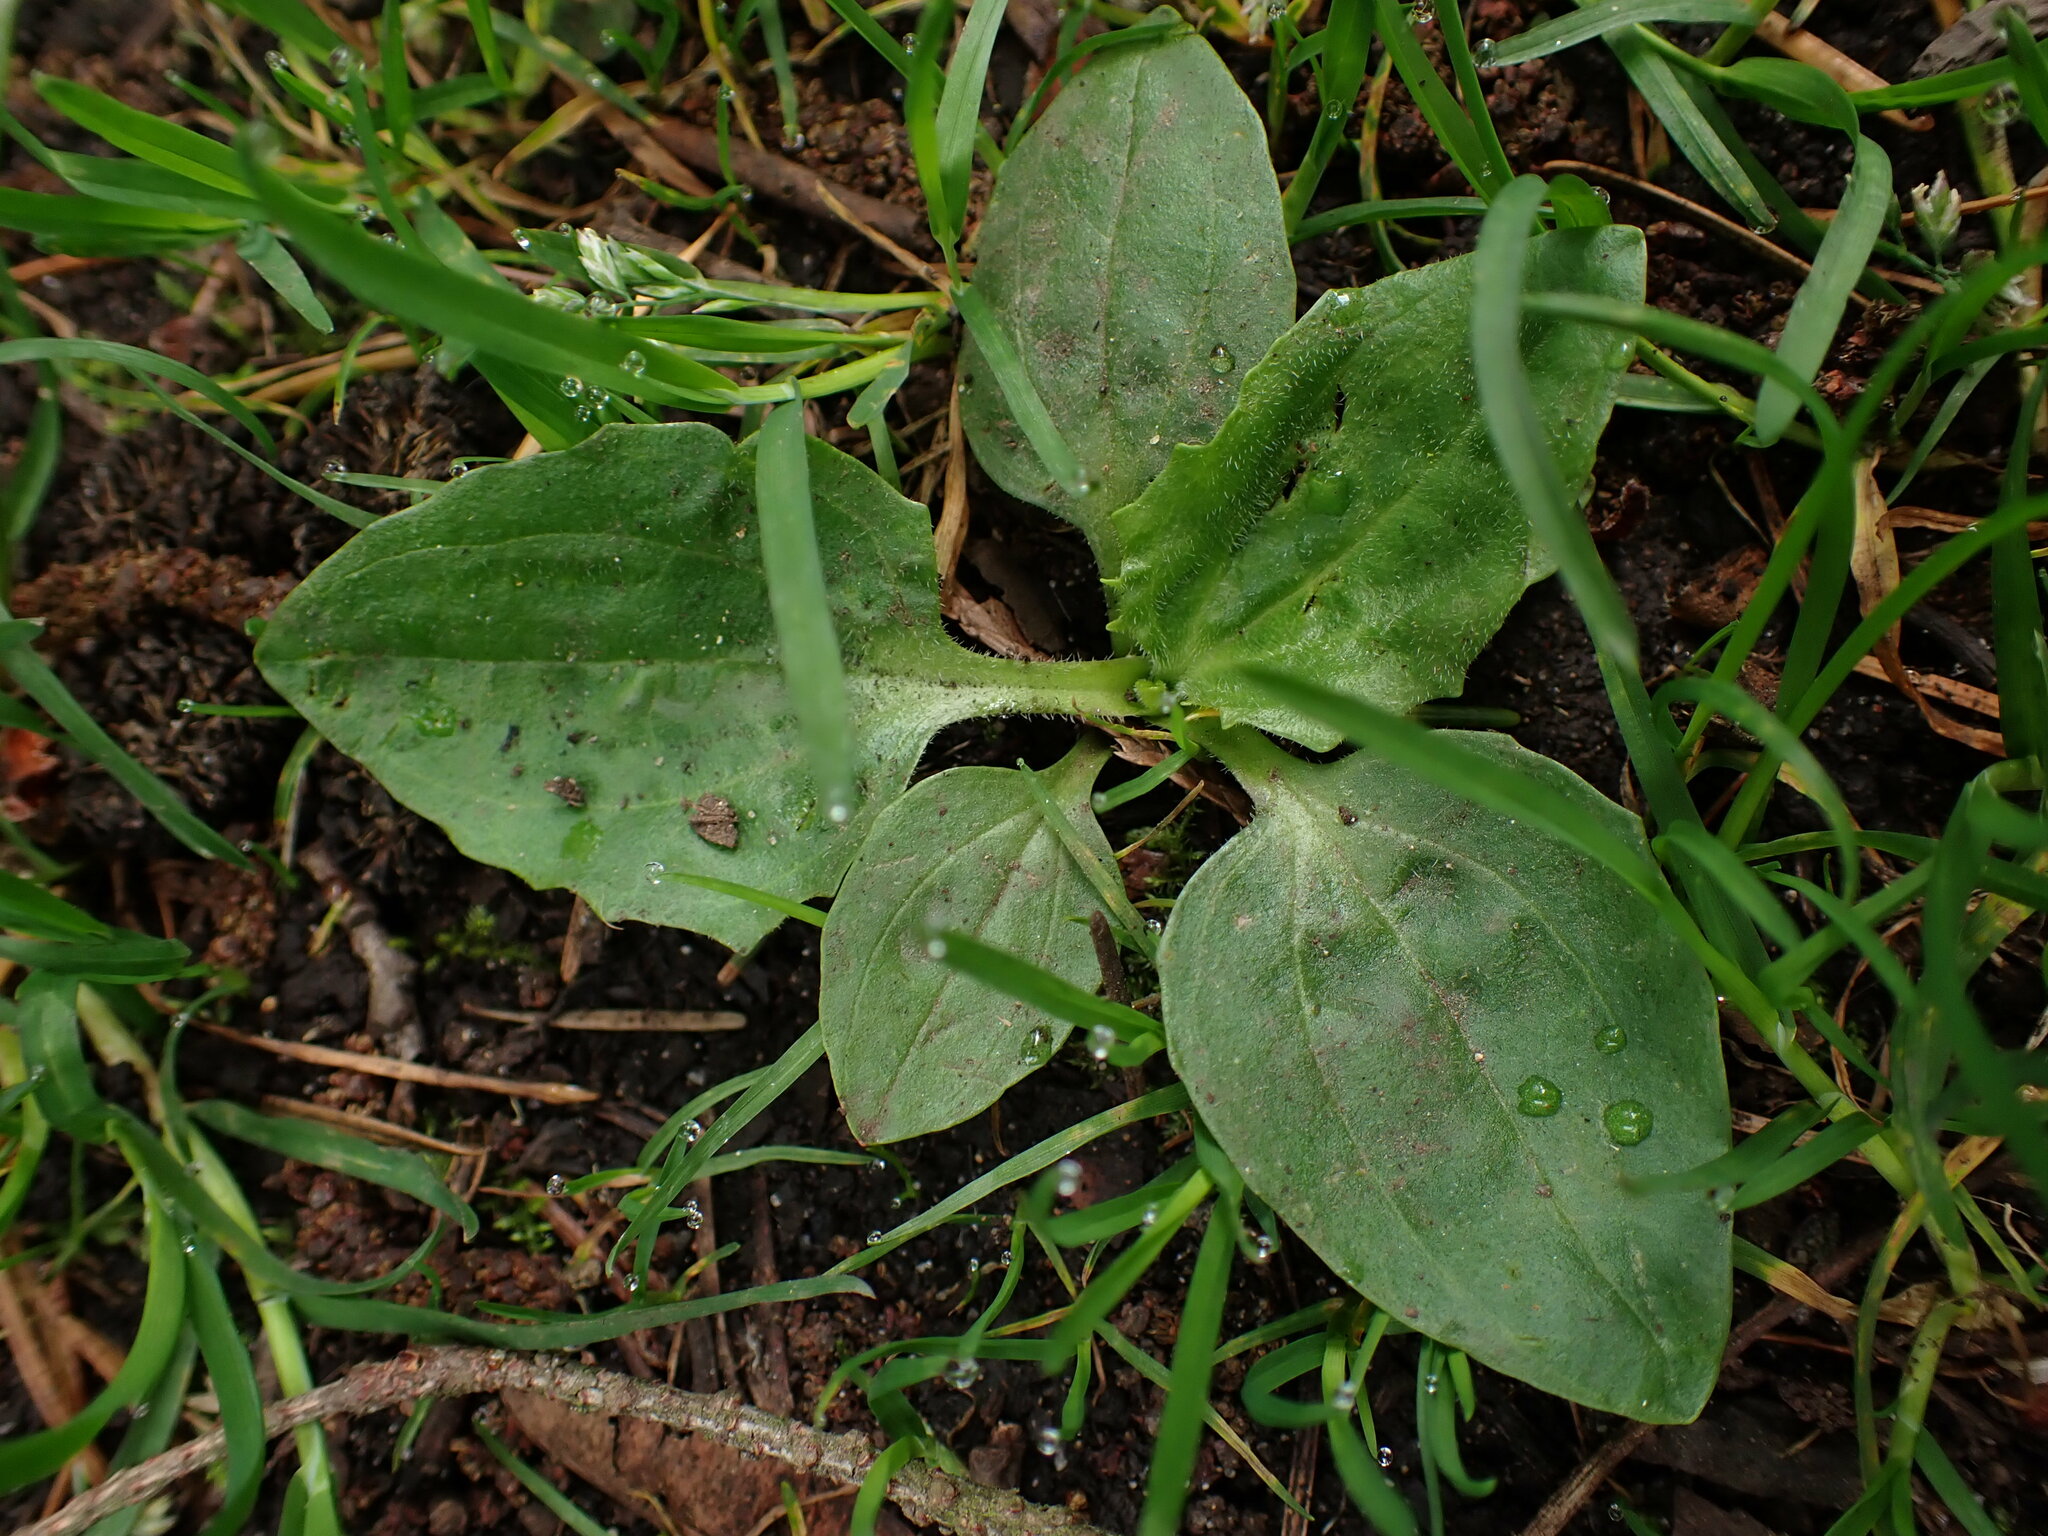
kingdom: Plantae
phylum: Tracheophyta
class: Magnoliopsida
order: Lamiales
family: Plantaginaceae
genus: Plantago
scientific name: Plantago major
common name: Common plantain
